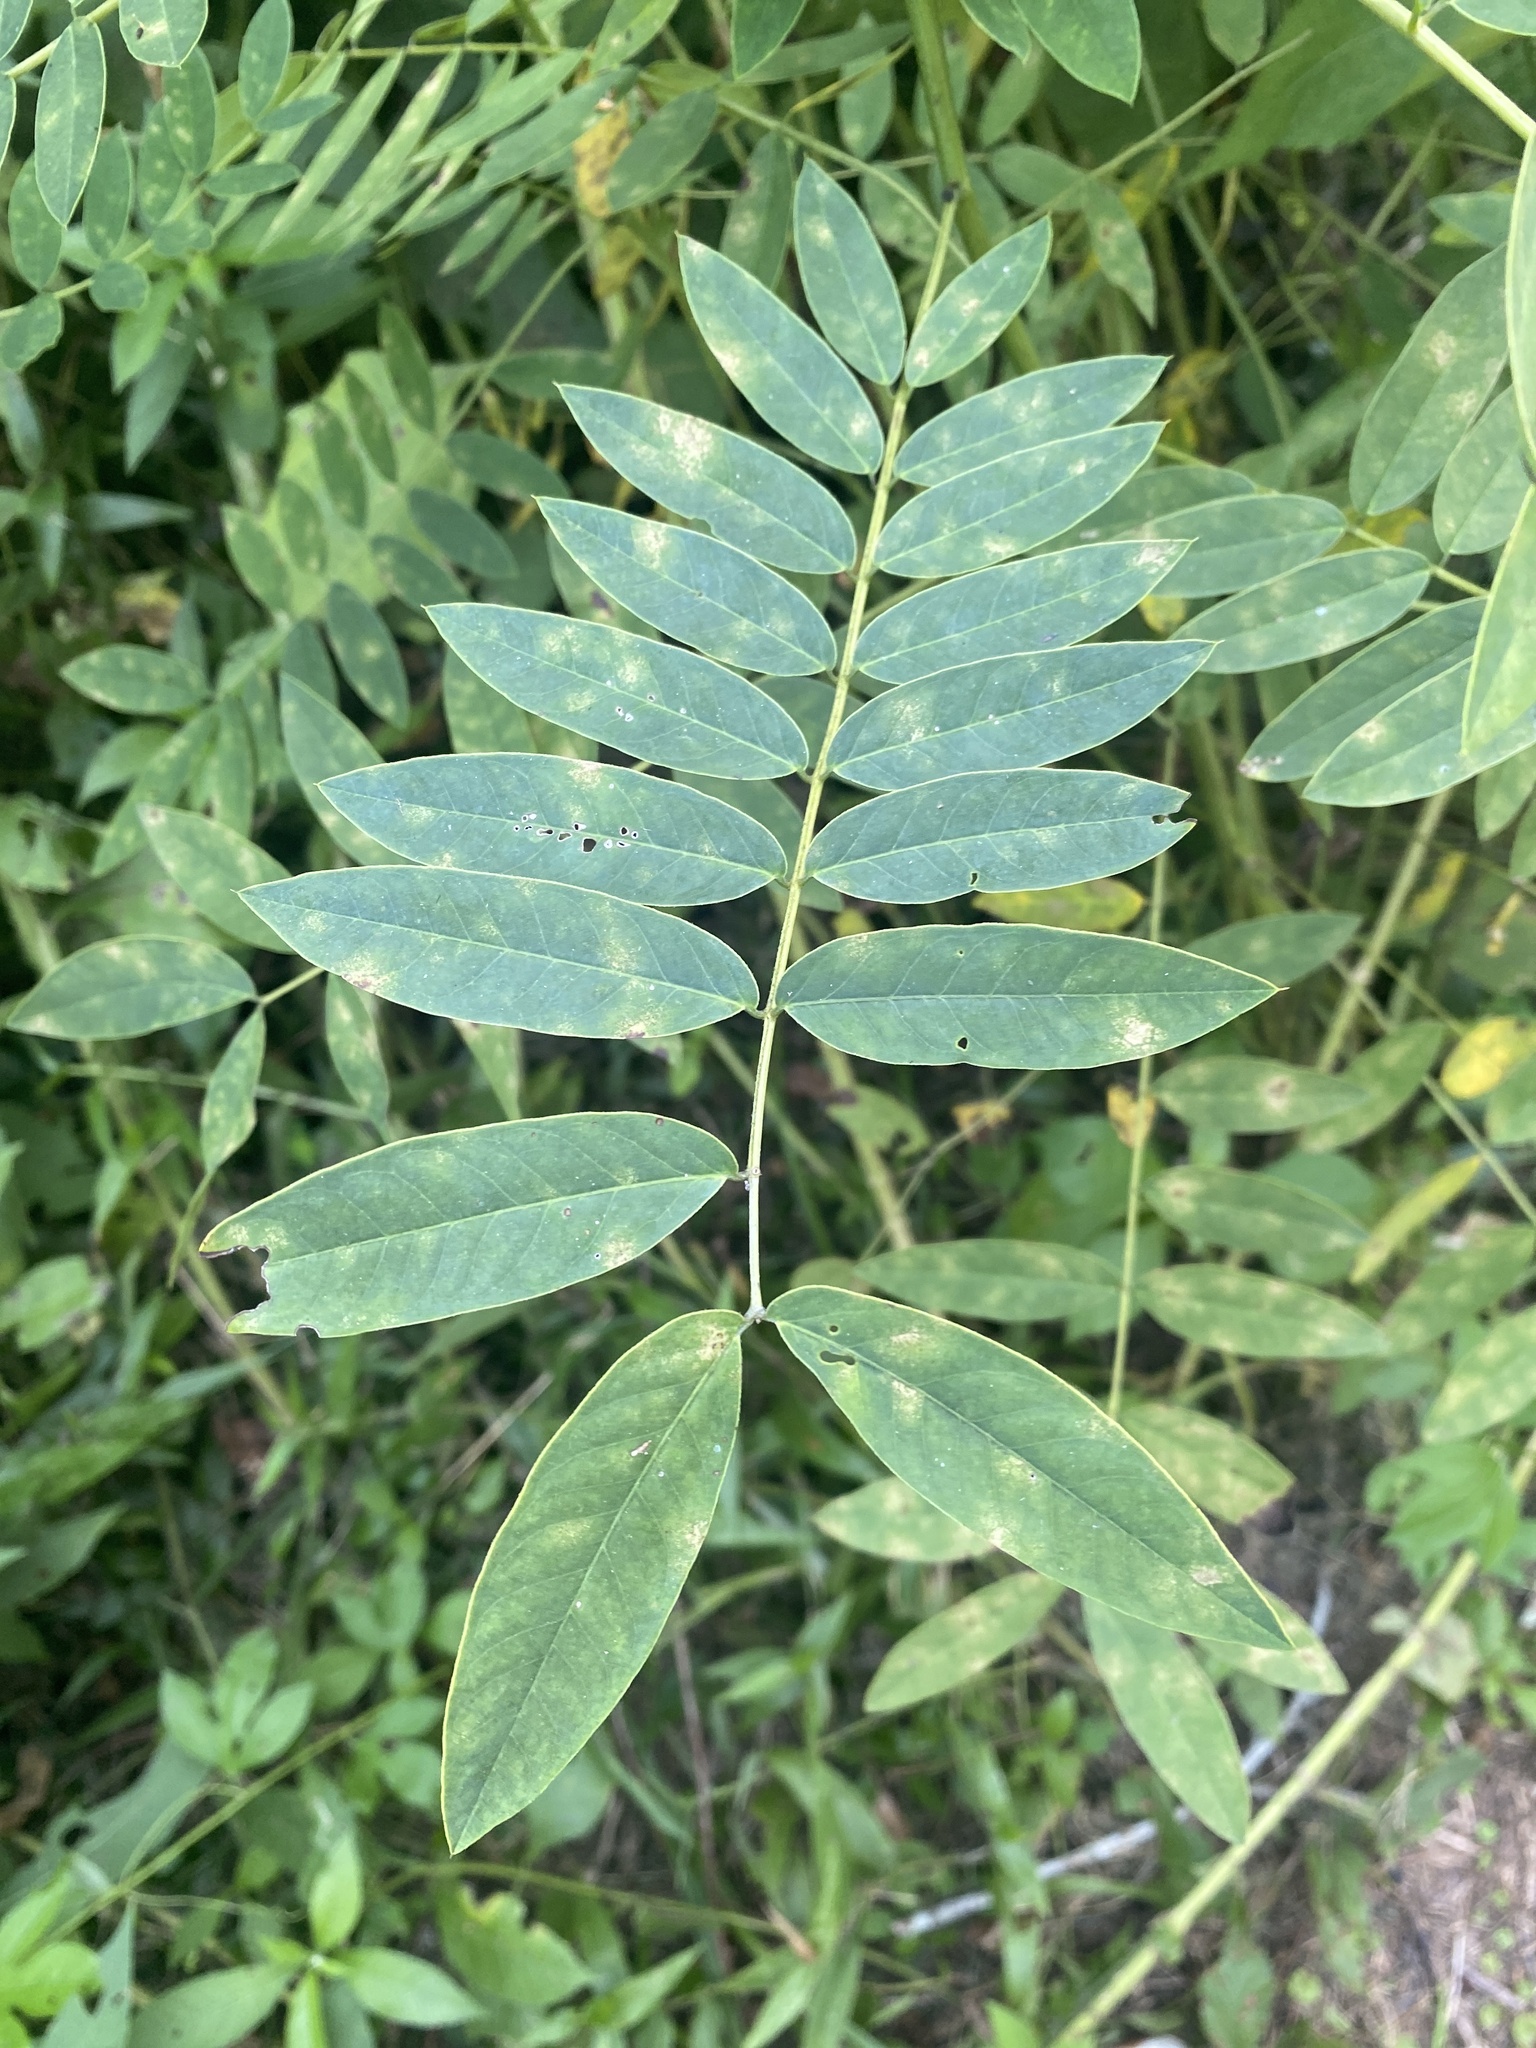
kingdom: Plantae
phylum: Tracheophyta
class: Magnoliopsida
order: Fabales
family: Fabaceae
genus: Senna
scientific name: Senna marilandica
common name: American senna
